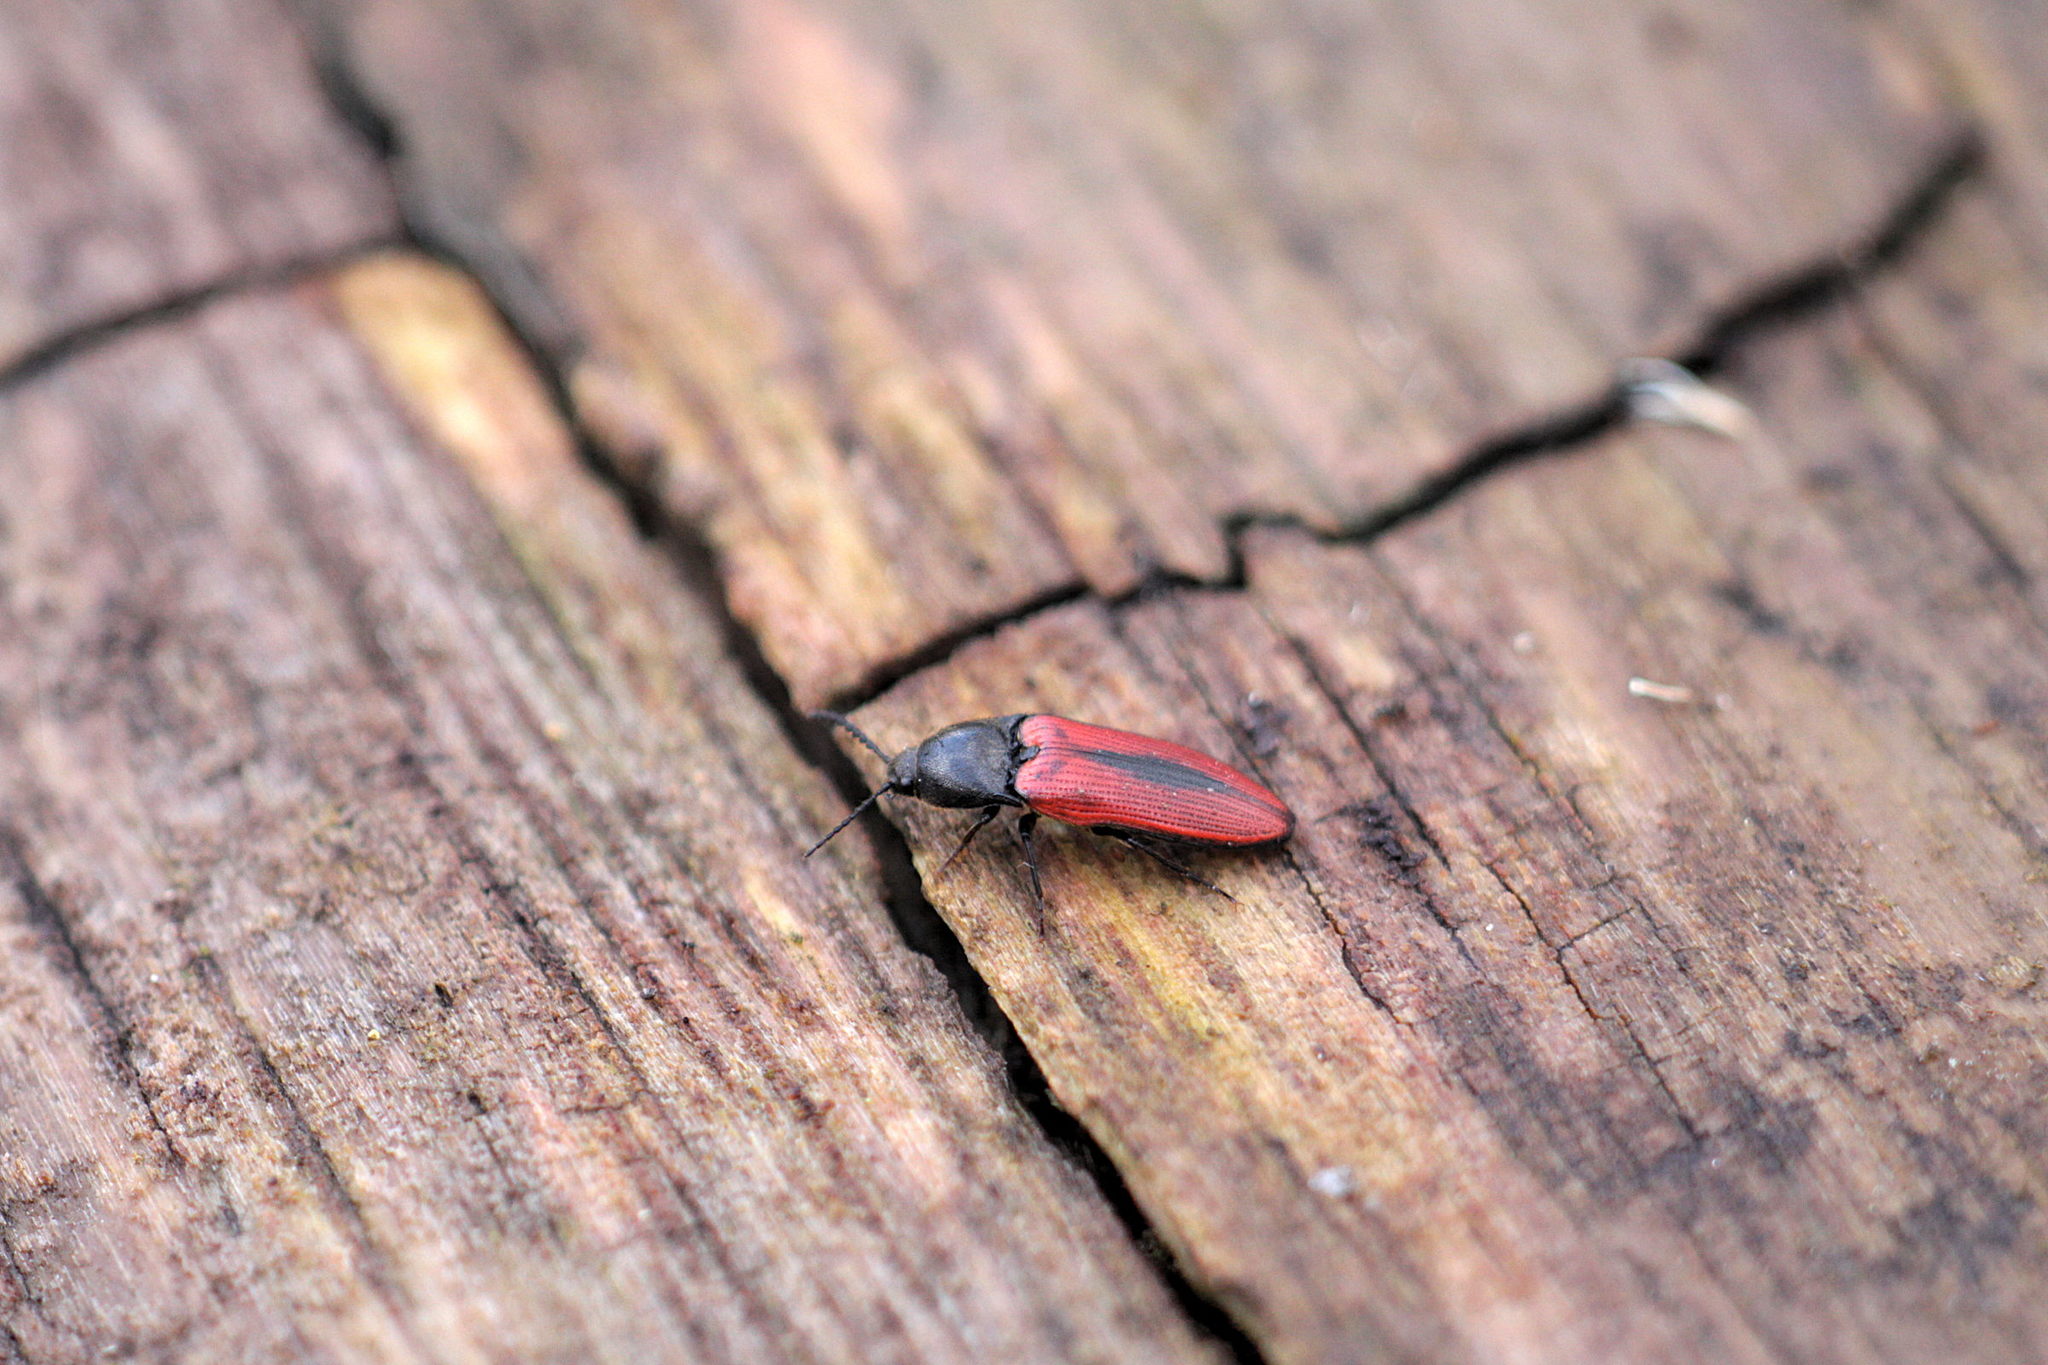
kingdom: Animalia
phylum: Arthropoda
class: Insecta
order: Coleoptera
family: Elateridae
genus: Ampedus
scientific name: Ampedus sanguinolentus
